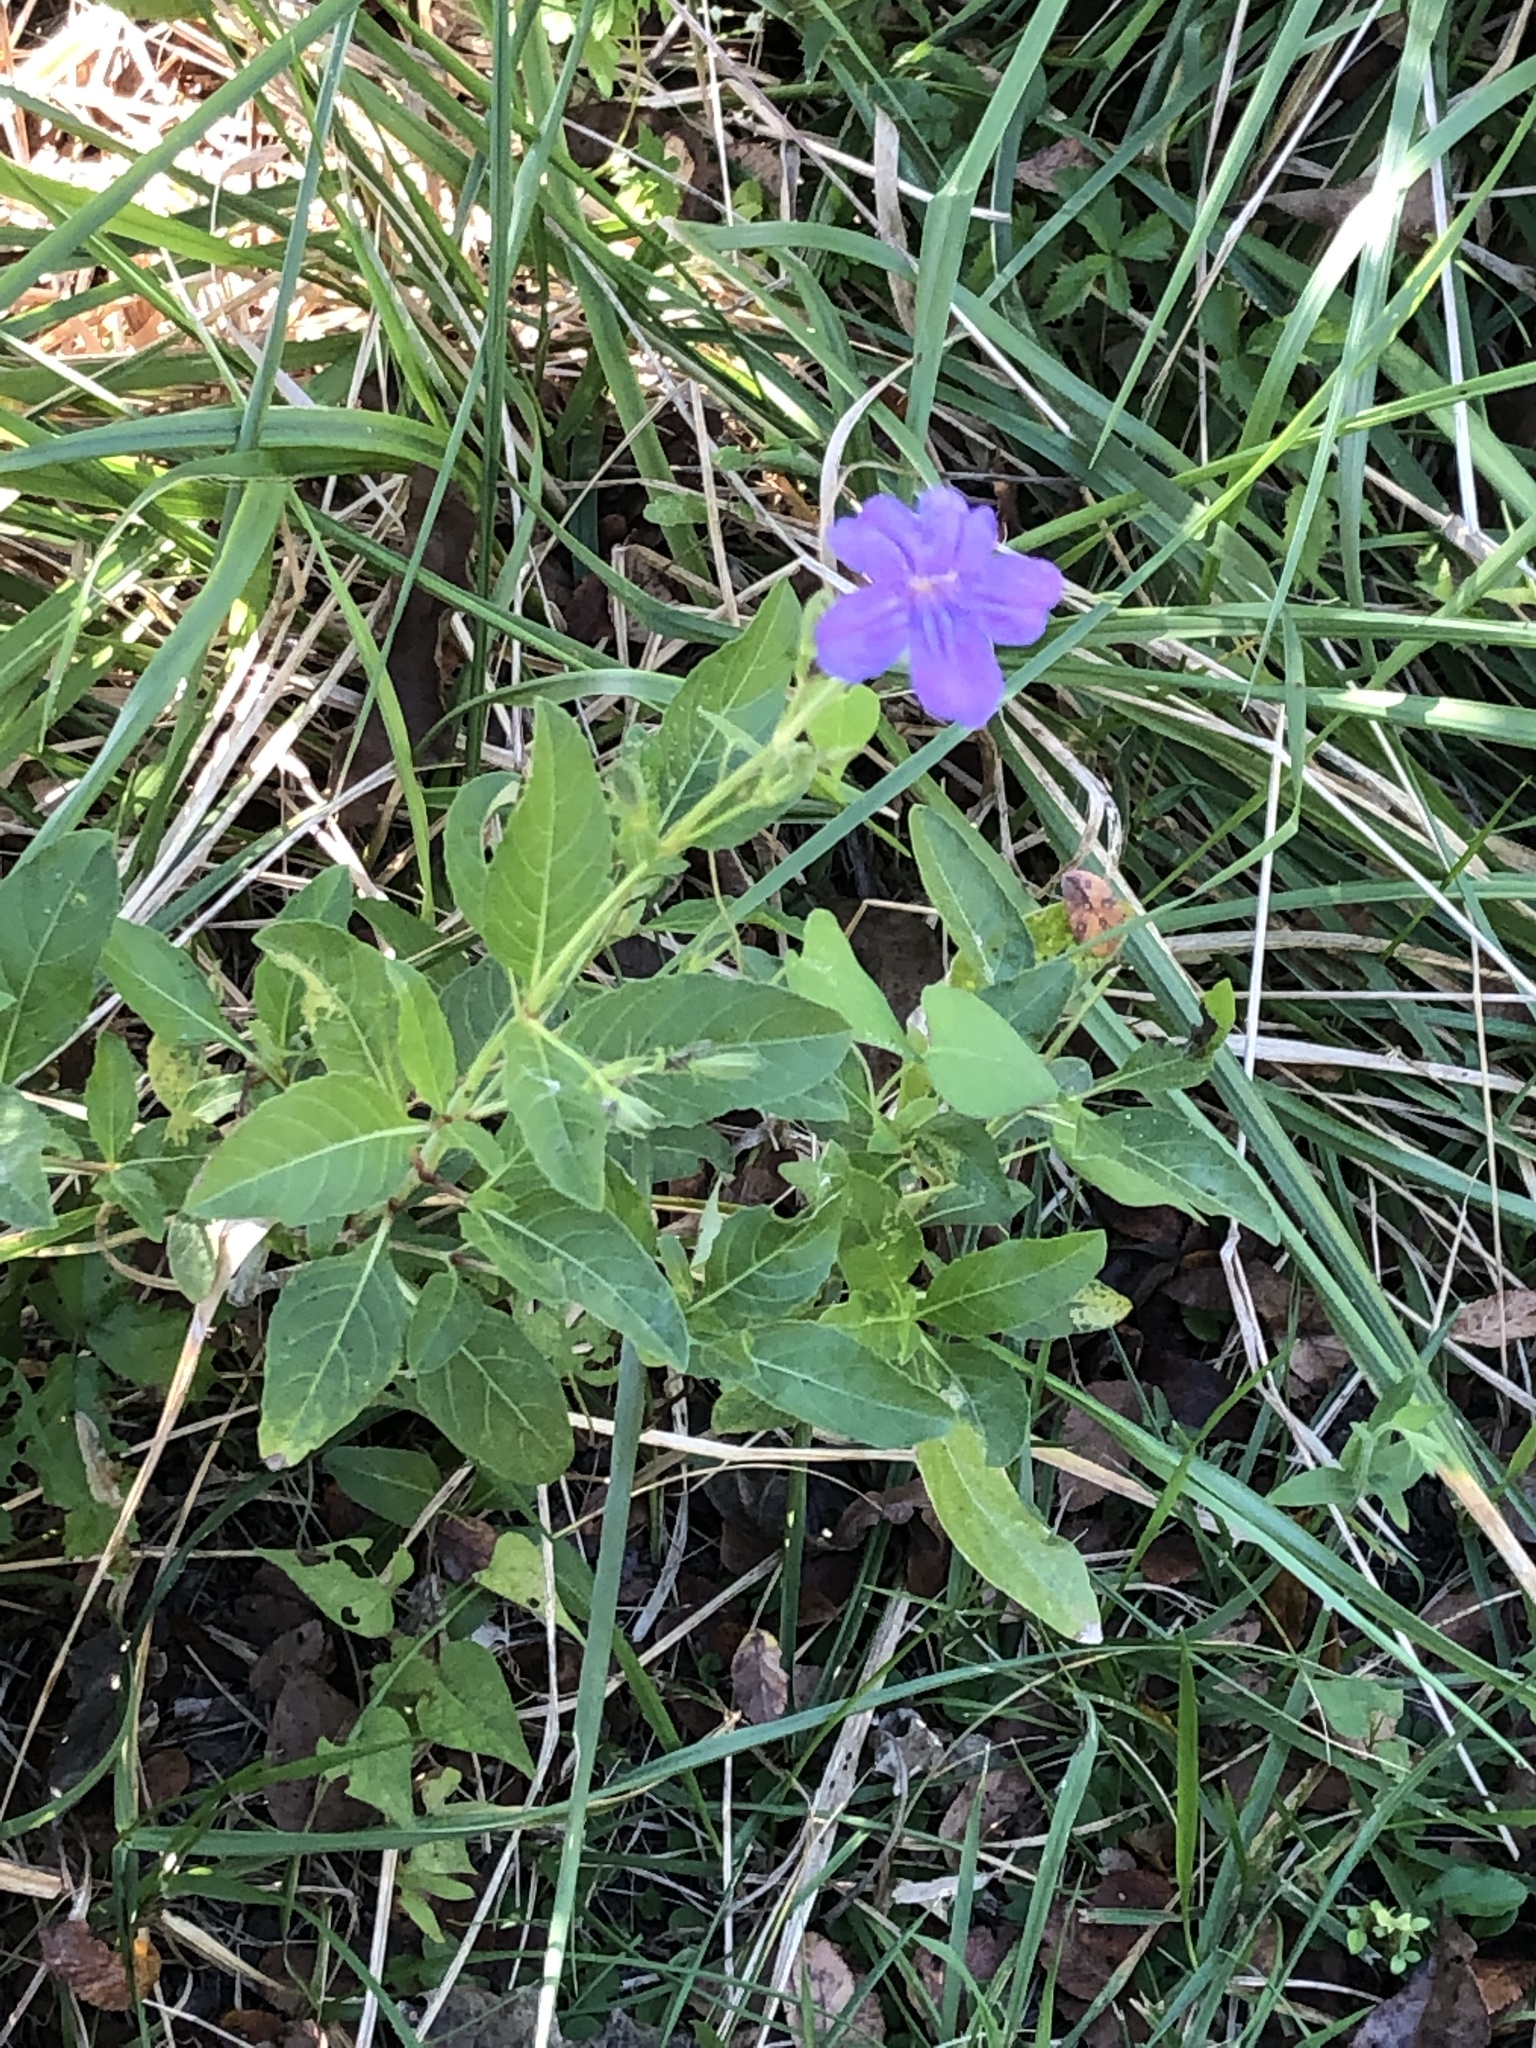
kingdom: Plantae
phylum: Tracheophyta
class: Magnoliopsida
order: Lamiales
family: Acanthaceae
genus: Ruellia
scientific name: Ruellia ciliatiflora
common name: Hairyflower wild petunia
